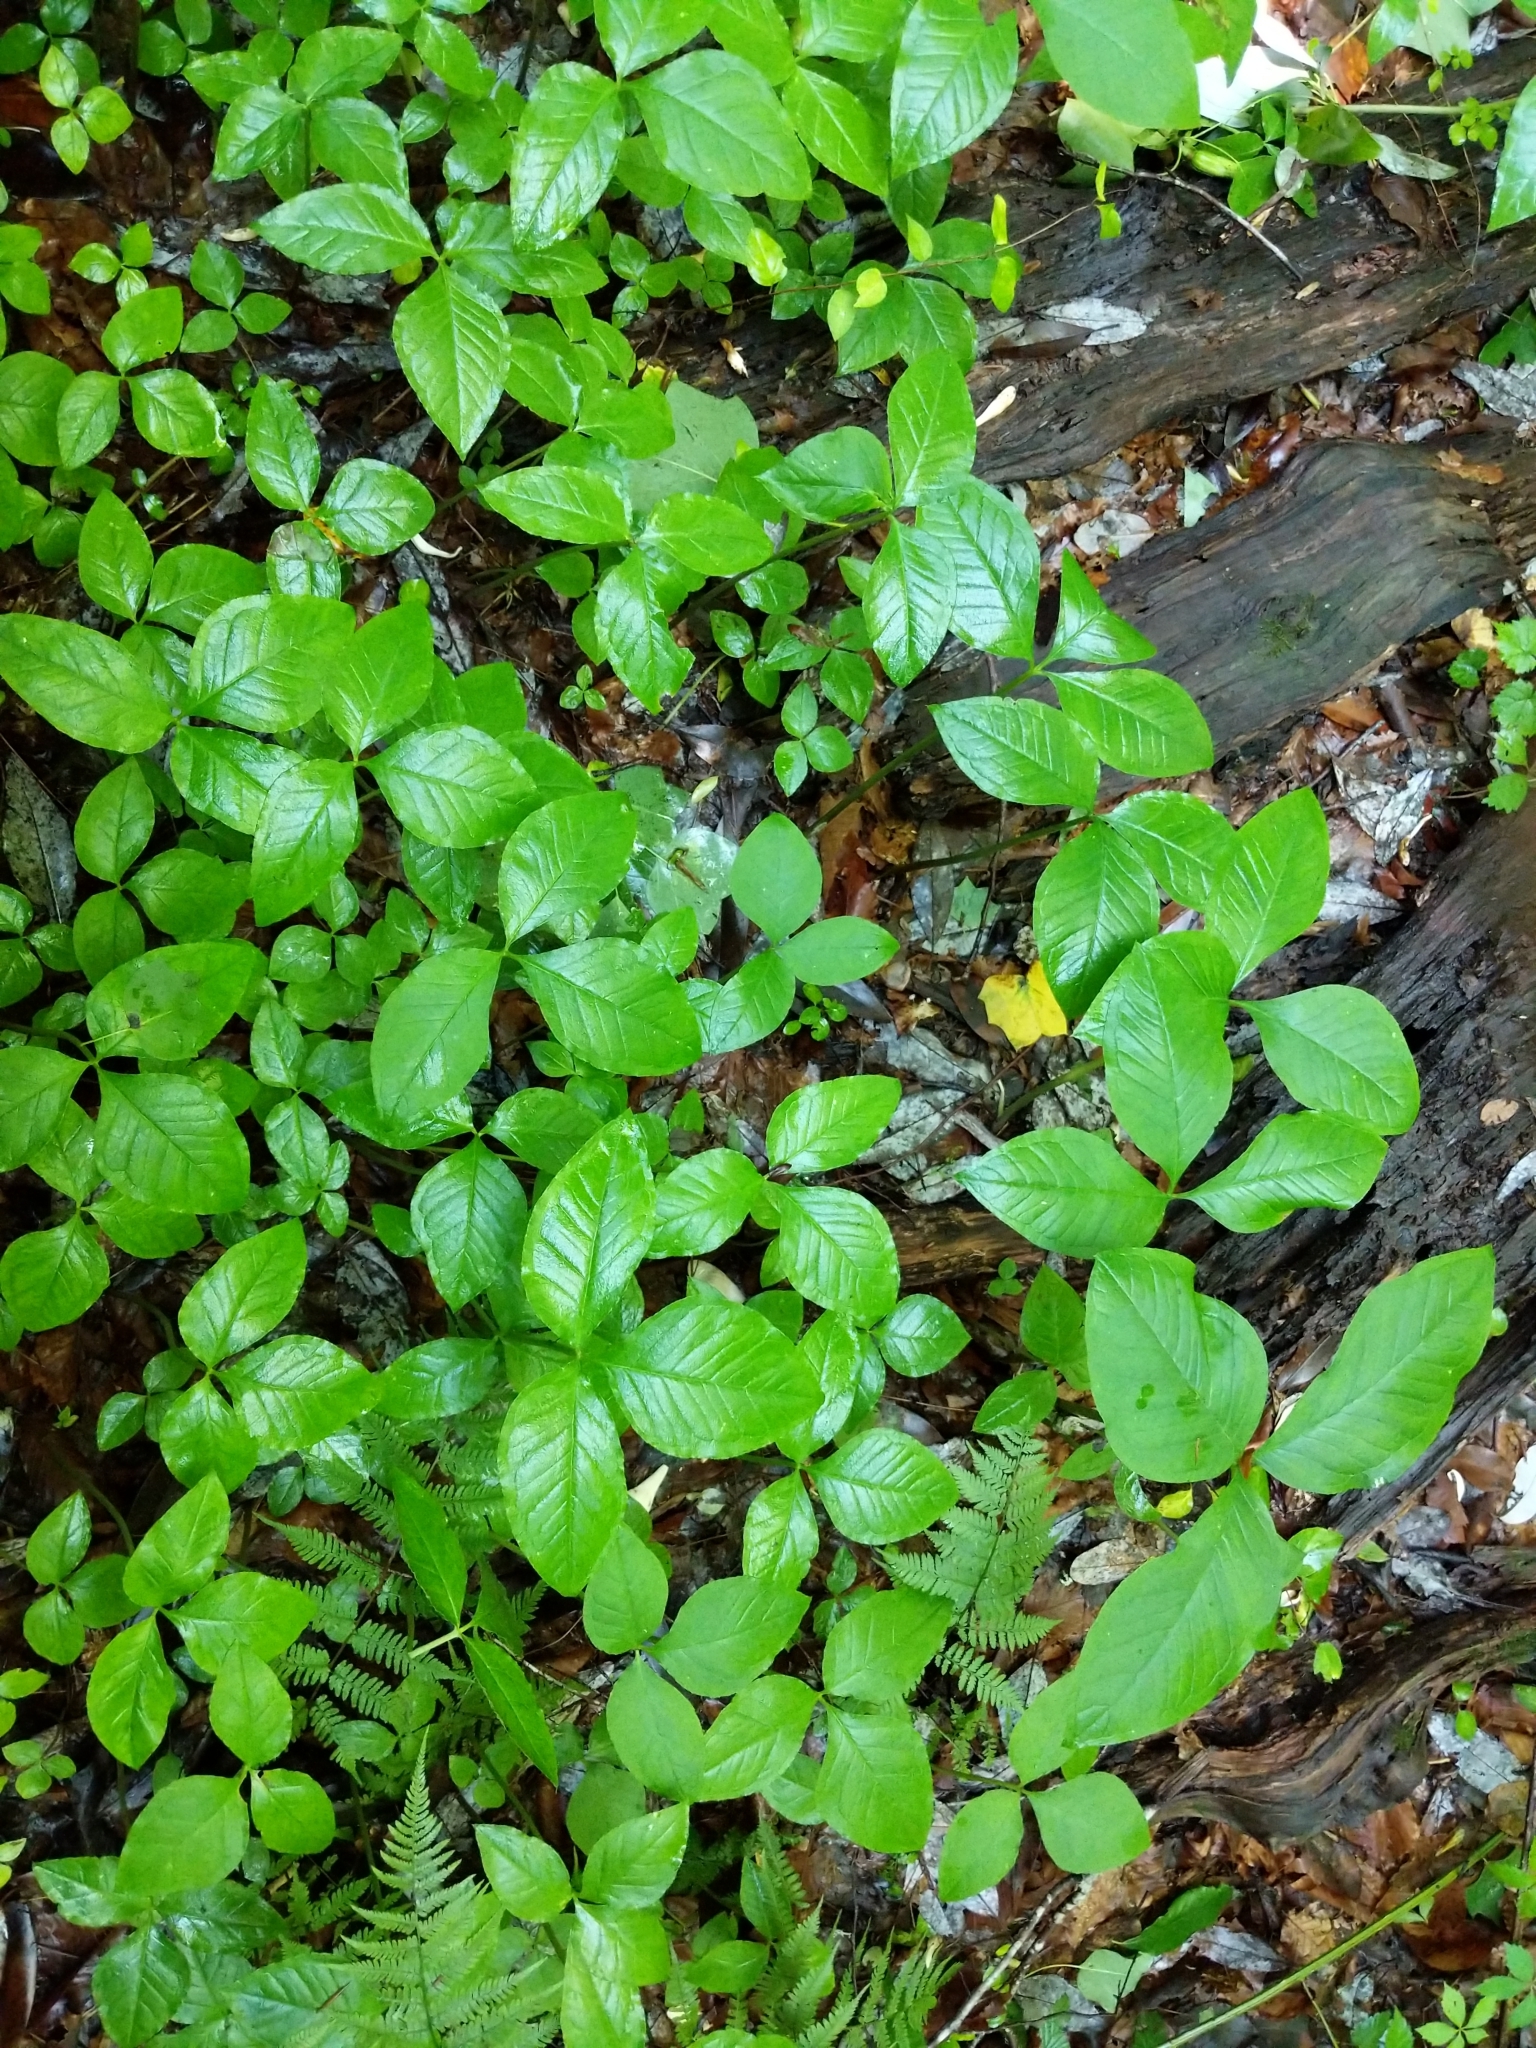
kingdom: Plantae
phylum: Tracheophyta
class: Liliopsida
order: Alismatales
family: Araceae
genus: Arisaema
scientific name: Arisaema triphyllum
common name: Jack-in-the-pulpit
